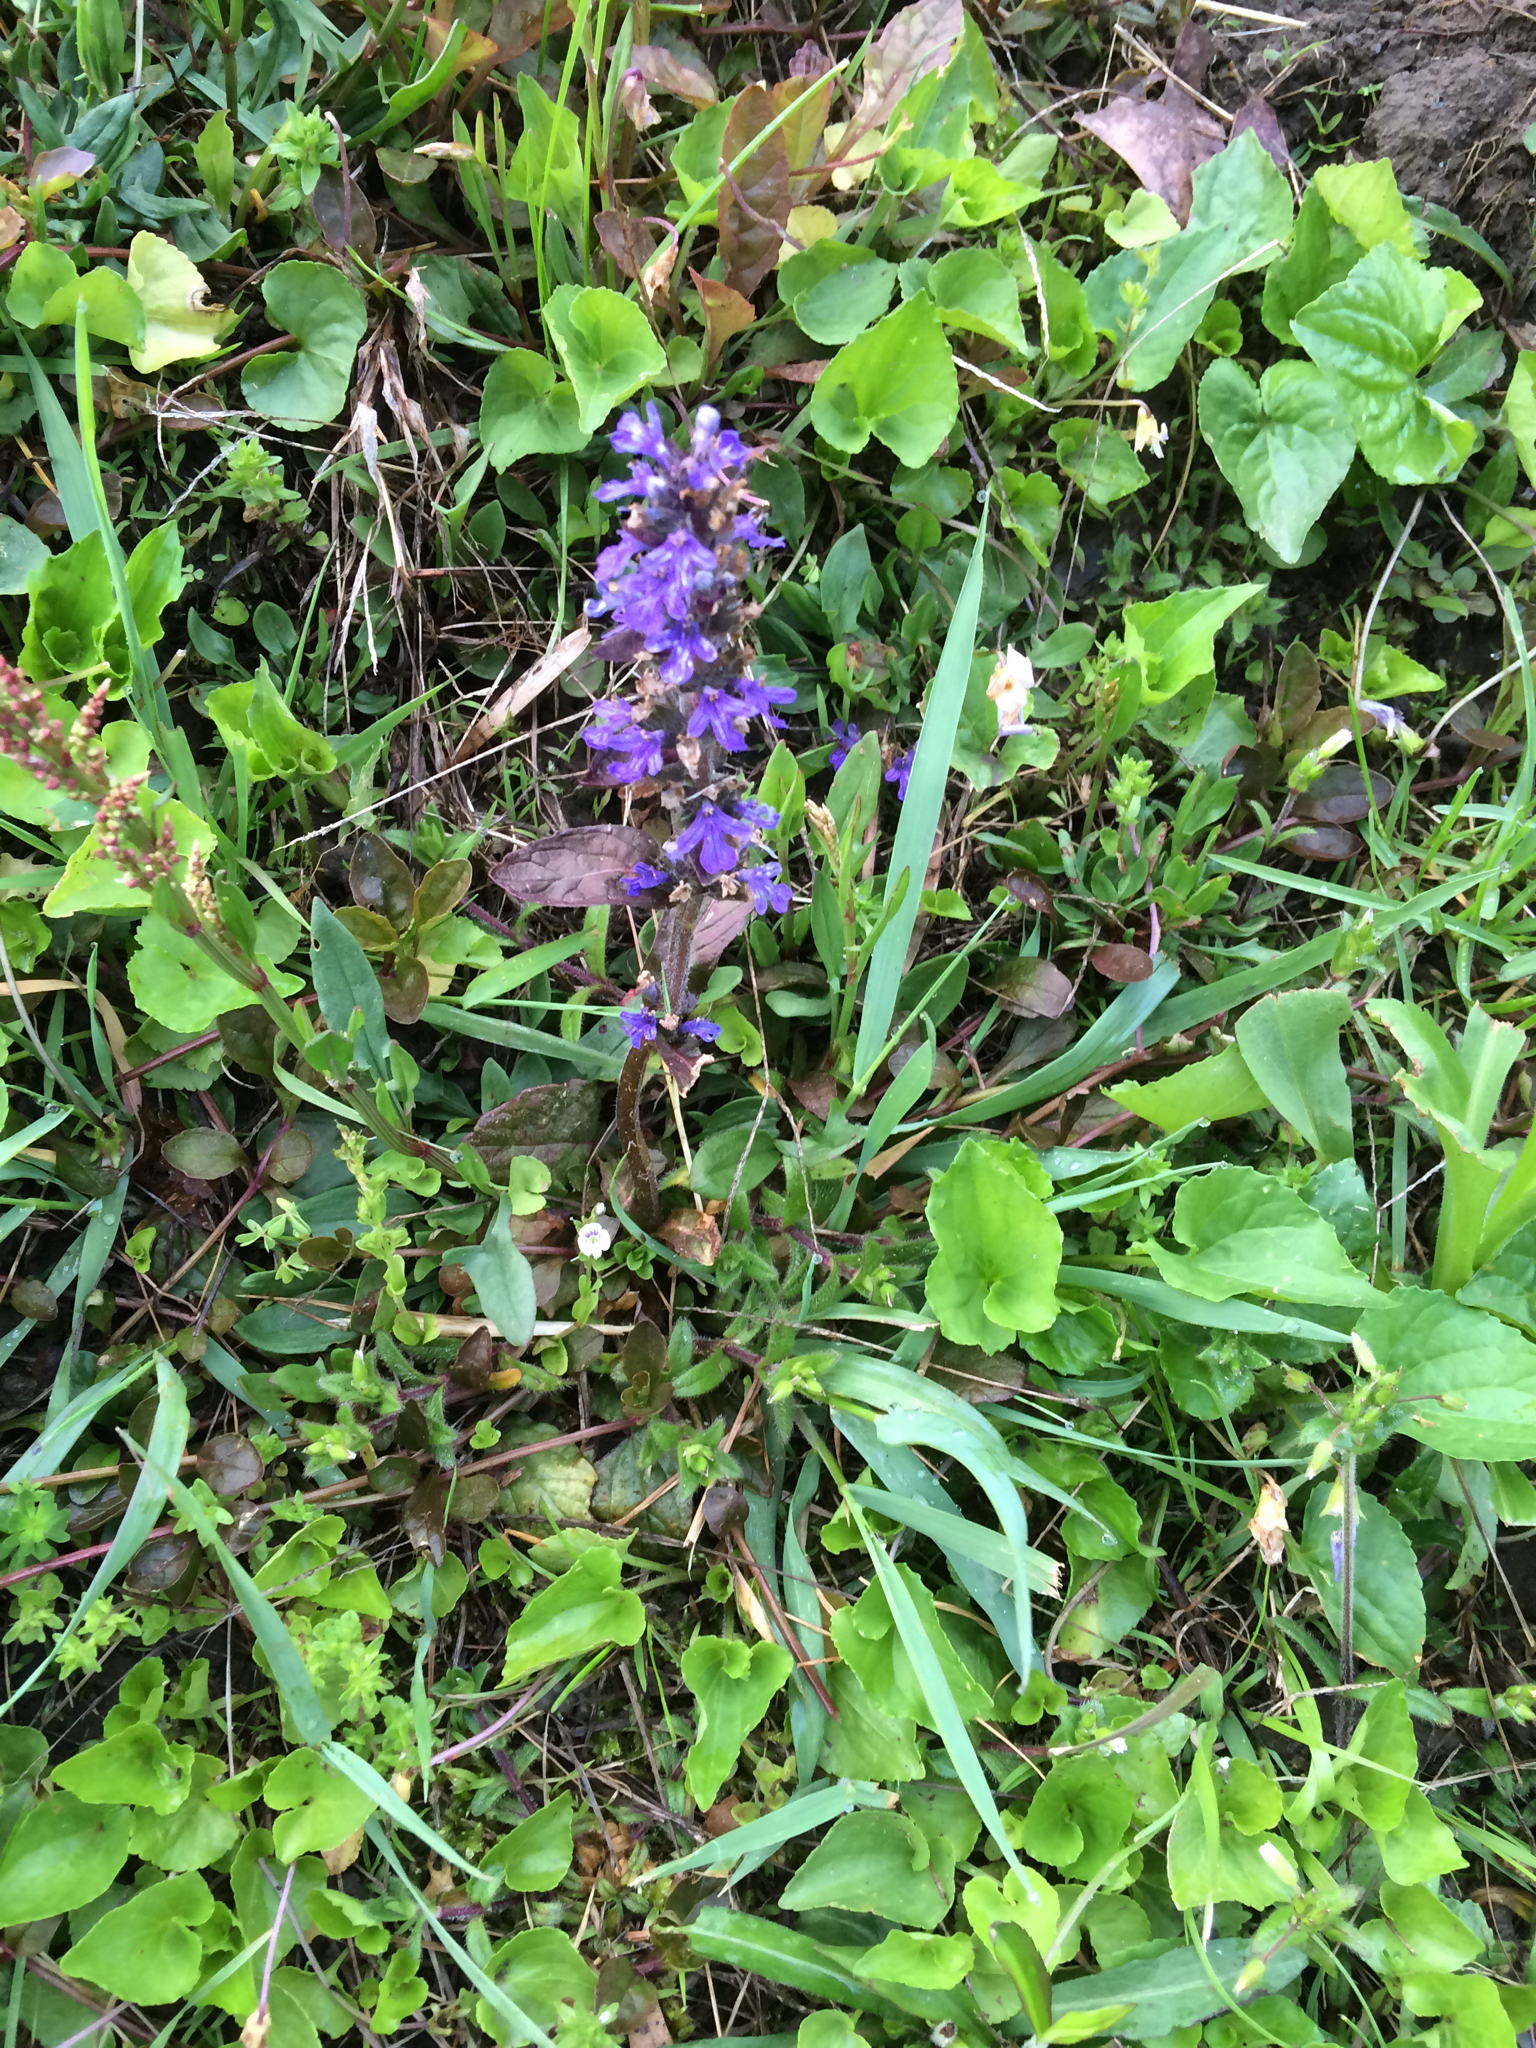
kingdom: Plantae
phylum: Tracheophyta
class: Magnoliopsida
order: Lamiales
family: Lamiaceae
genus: Ajuga
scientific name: Ajuga reptans
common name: Bugle
